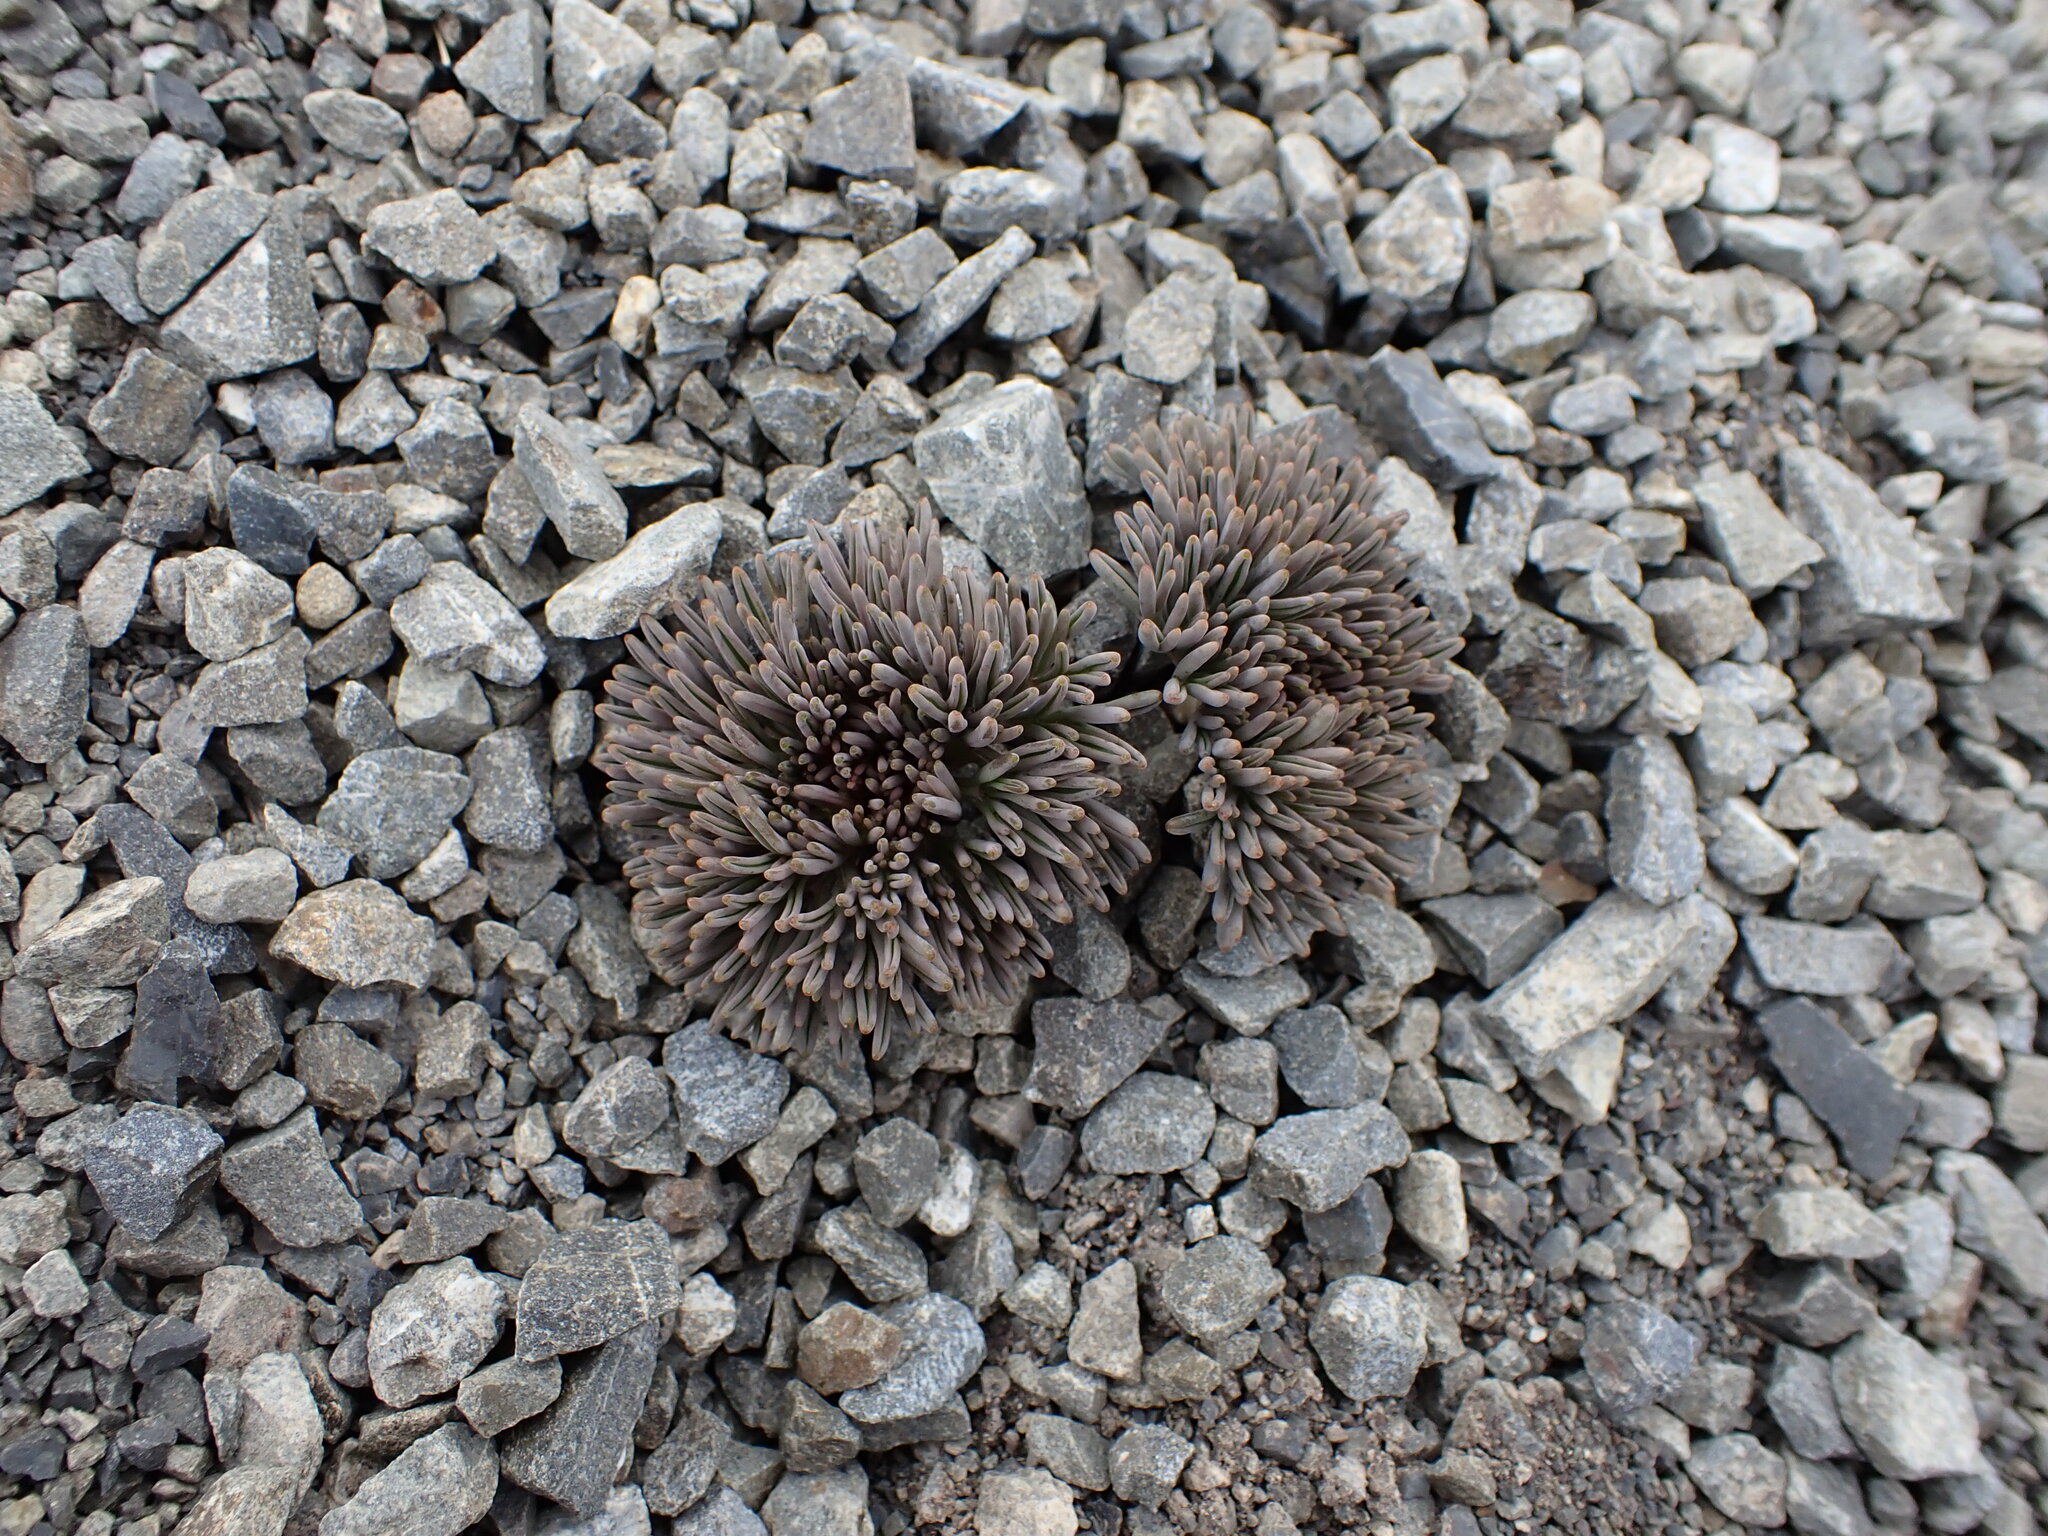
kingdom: Plantae
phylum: Tracheophyta
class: Magnoliopsida
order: Apiales
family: Apiaceae
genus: Lignocarpa
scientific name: Lignocarpa diversifolia
